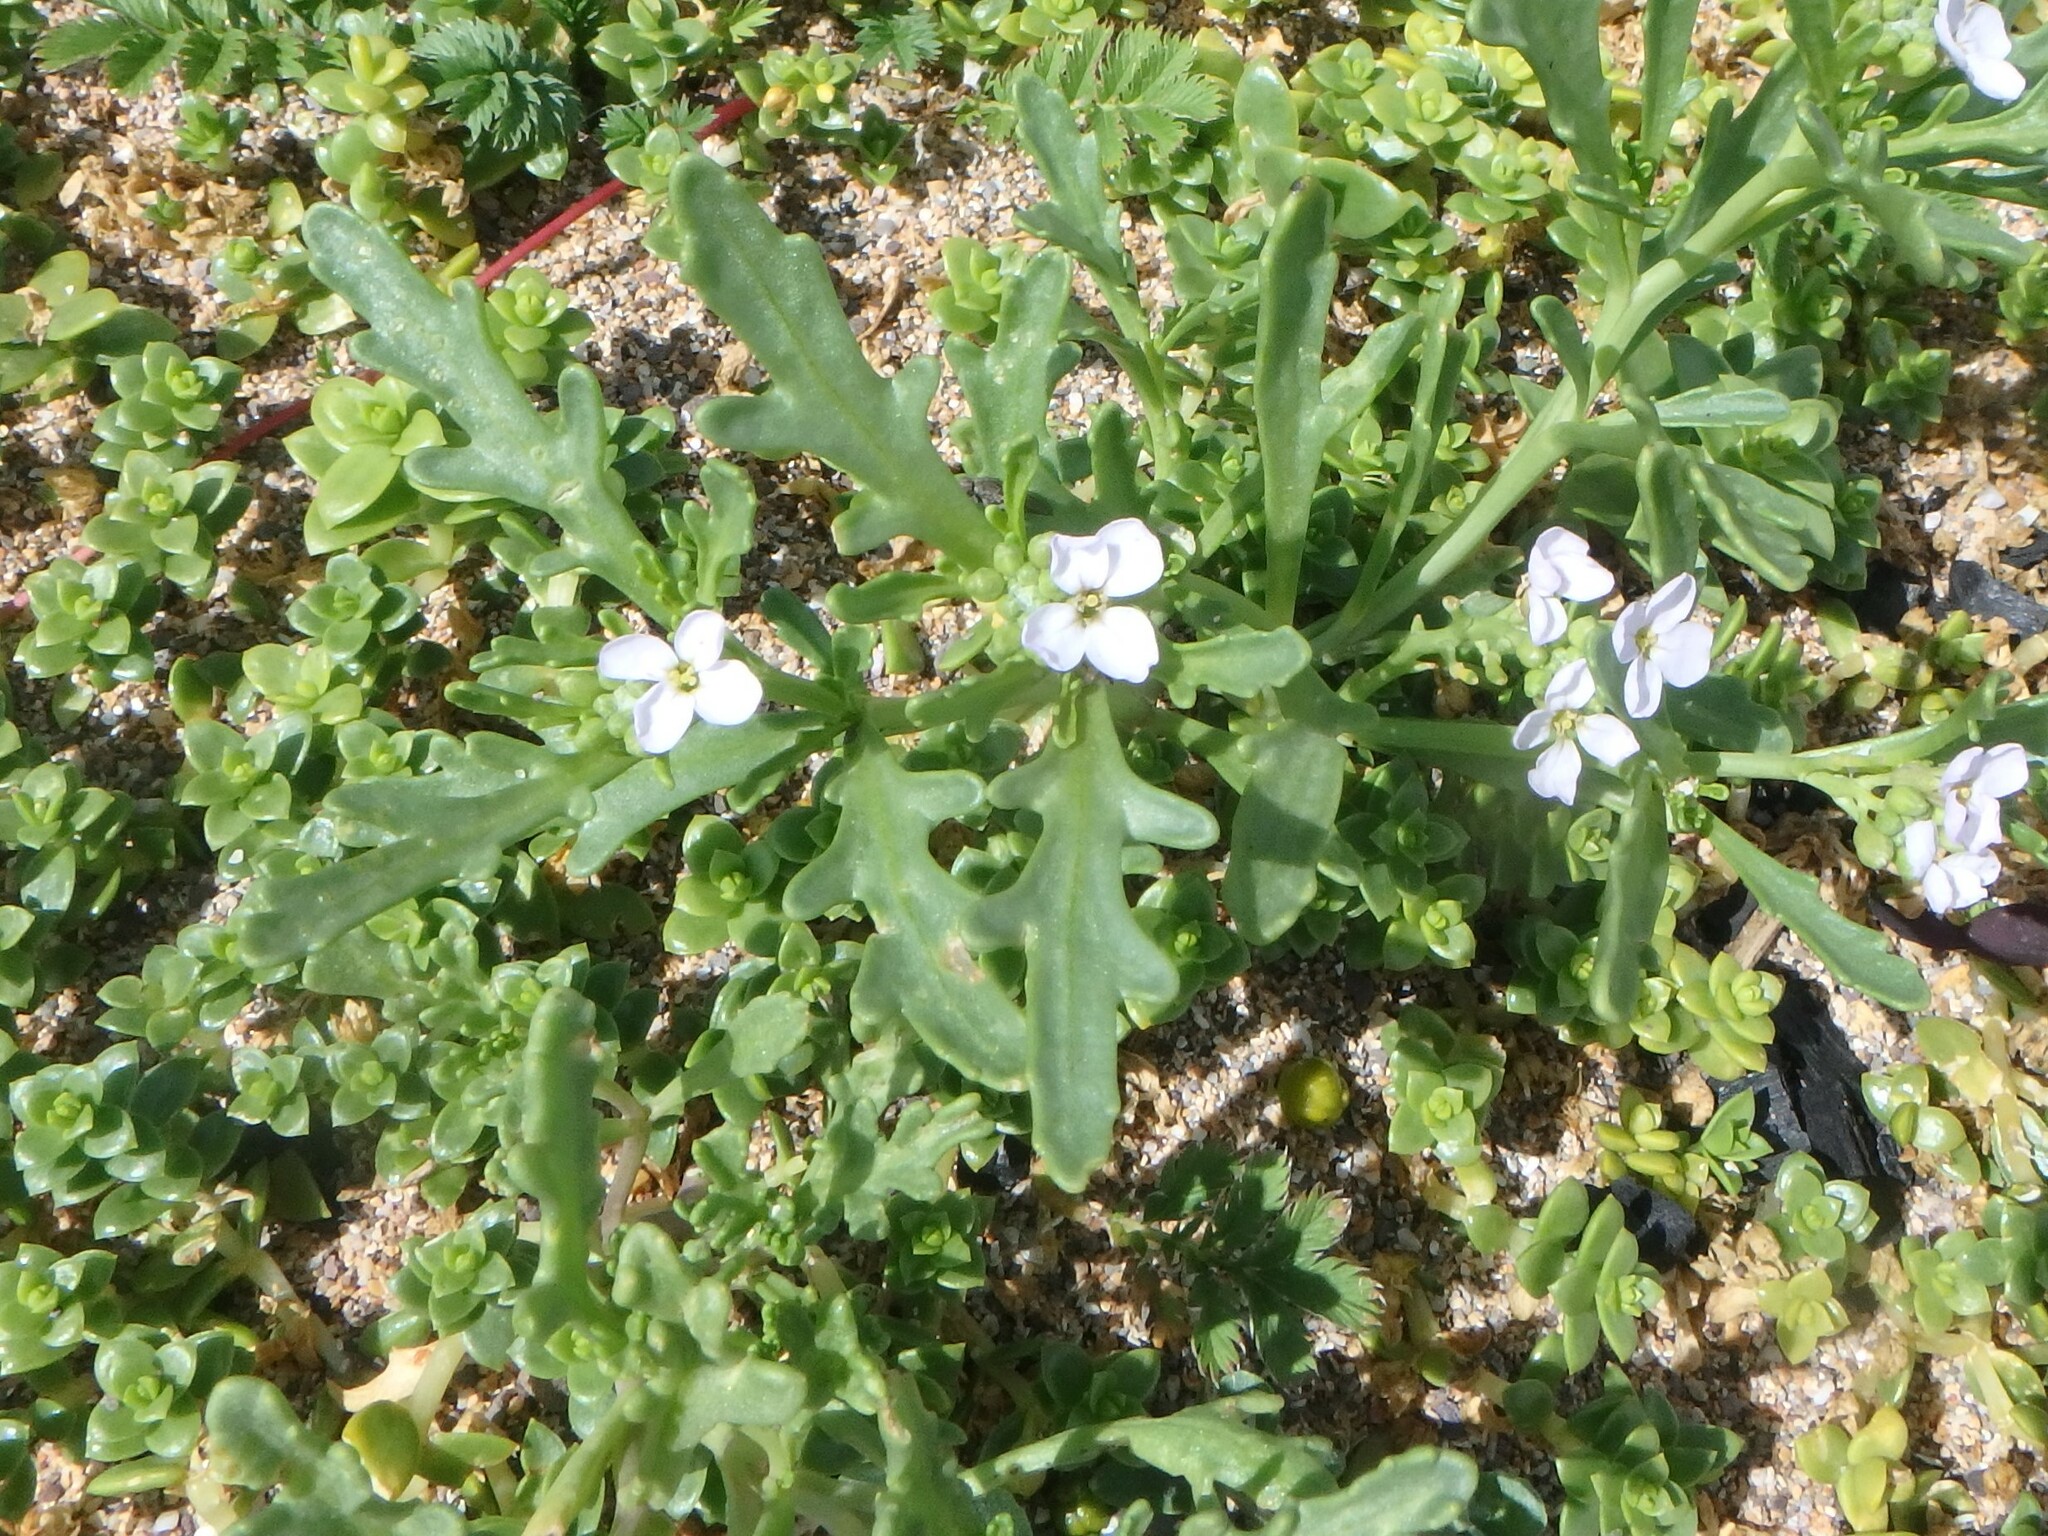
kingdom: Plantae
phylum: Tracheophyta
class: Magnoliopsida
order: Brassicales
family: Brassicaceae
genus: Cakile
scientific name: Cakile maritima
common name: Sea rocket
